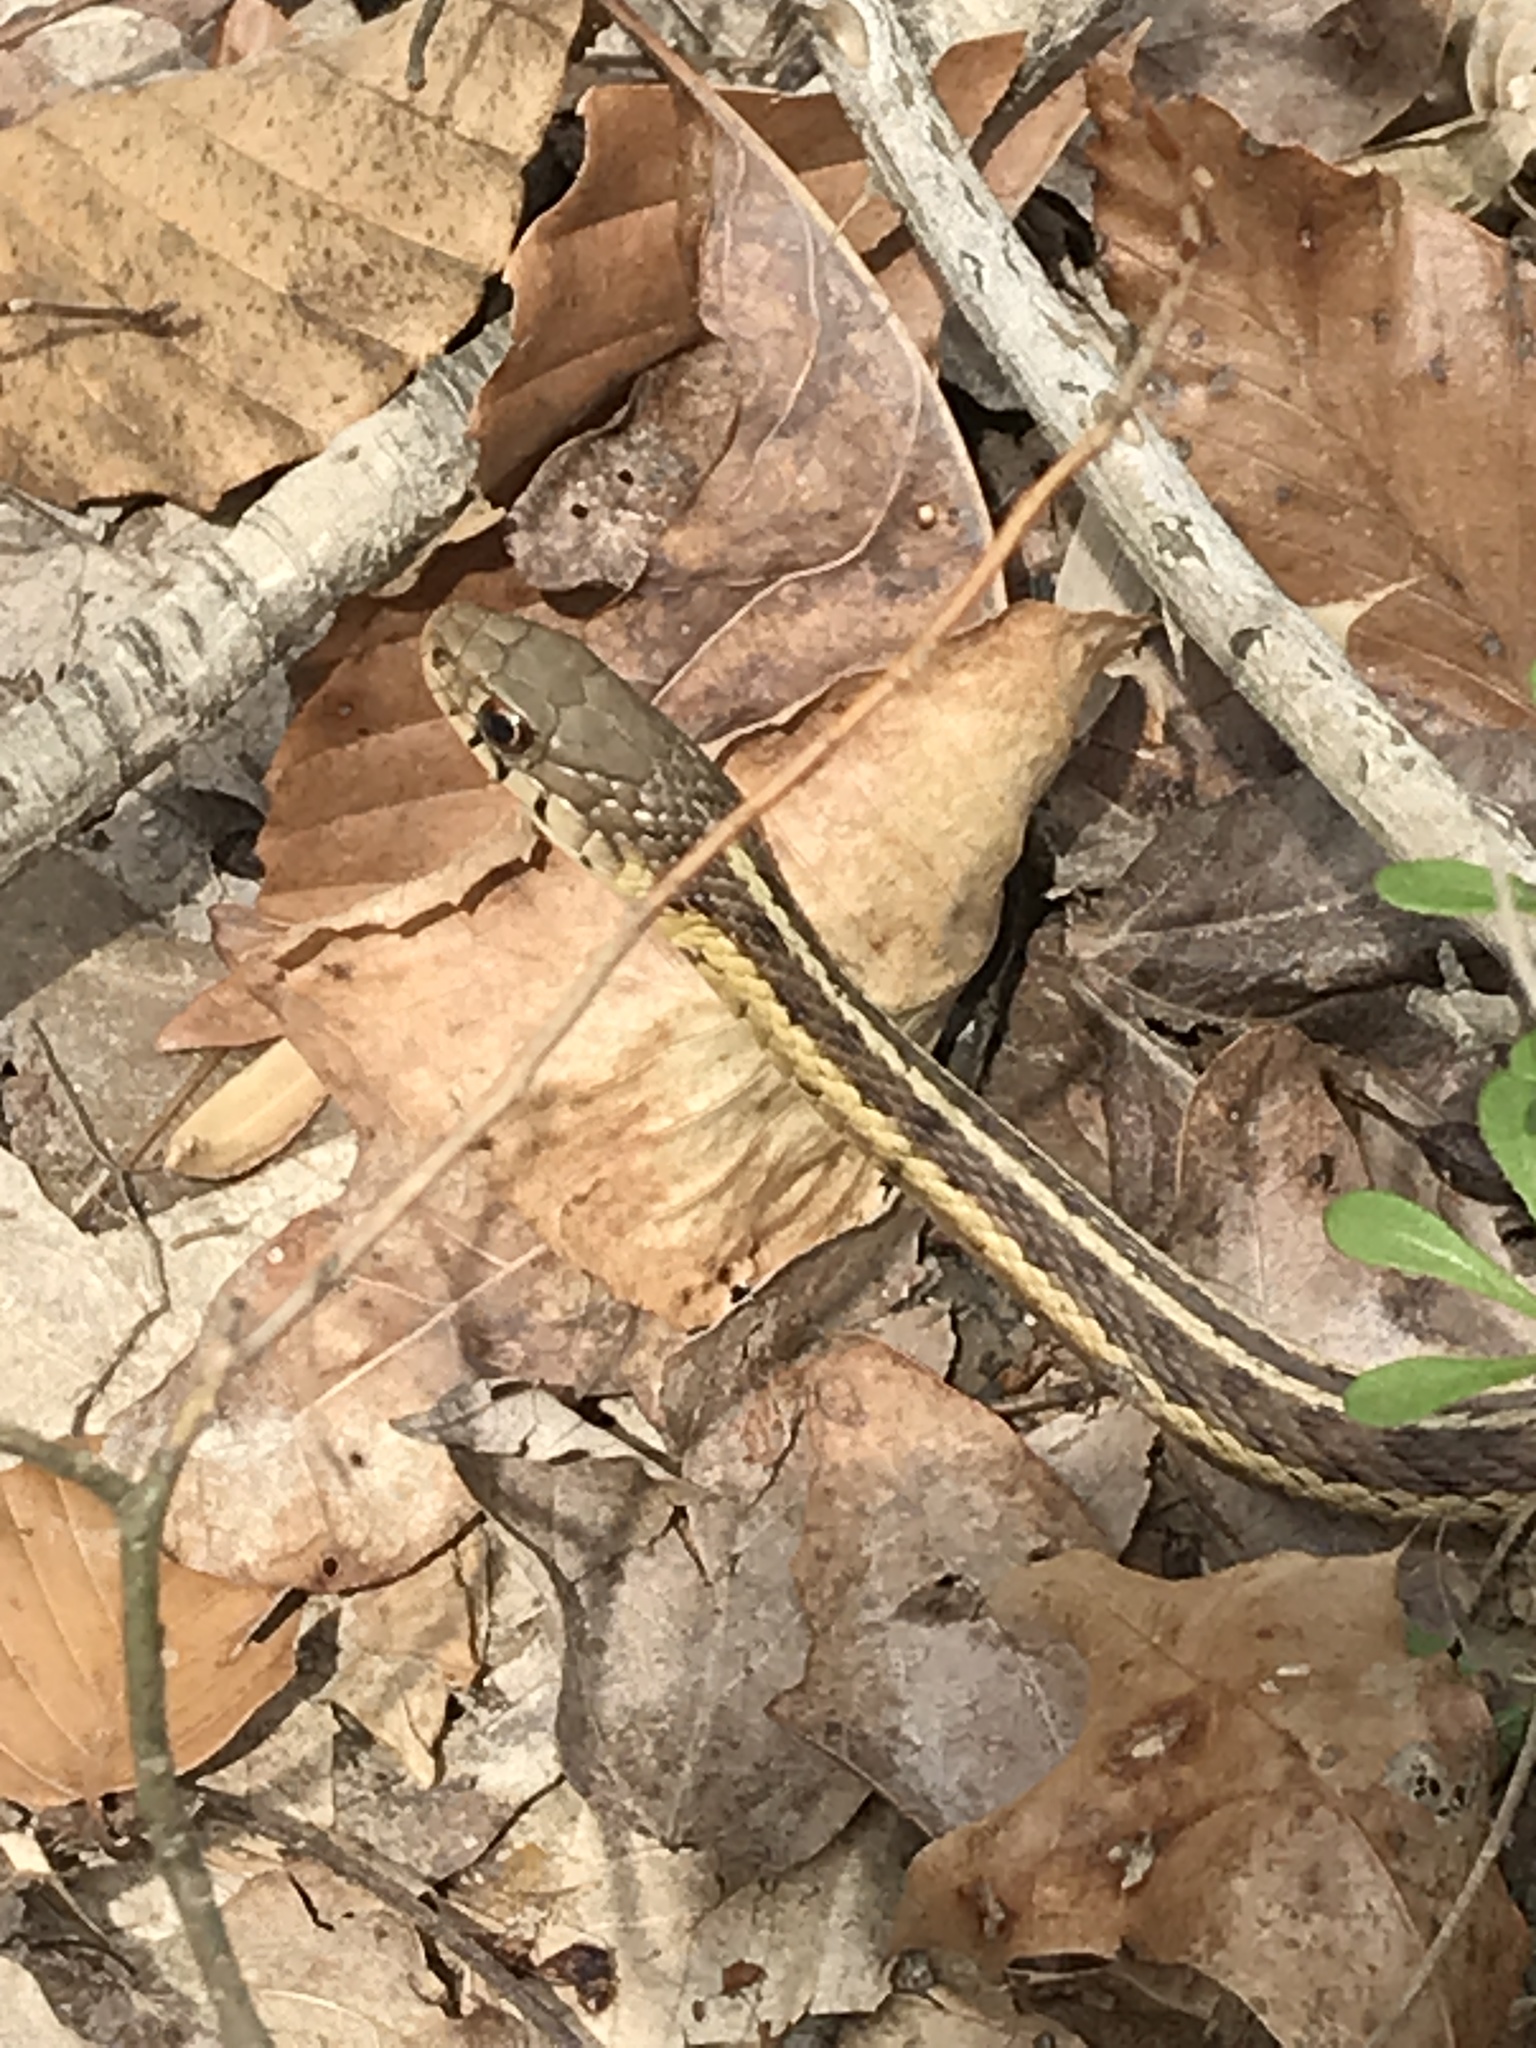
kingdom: Animalia
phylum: Chordata
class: Squamata
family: Colubridae
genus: Thamnophis
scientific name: Thamnophis sirtalis
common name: Common garter snake
